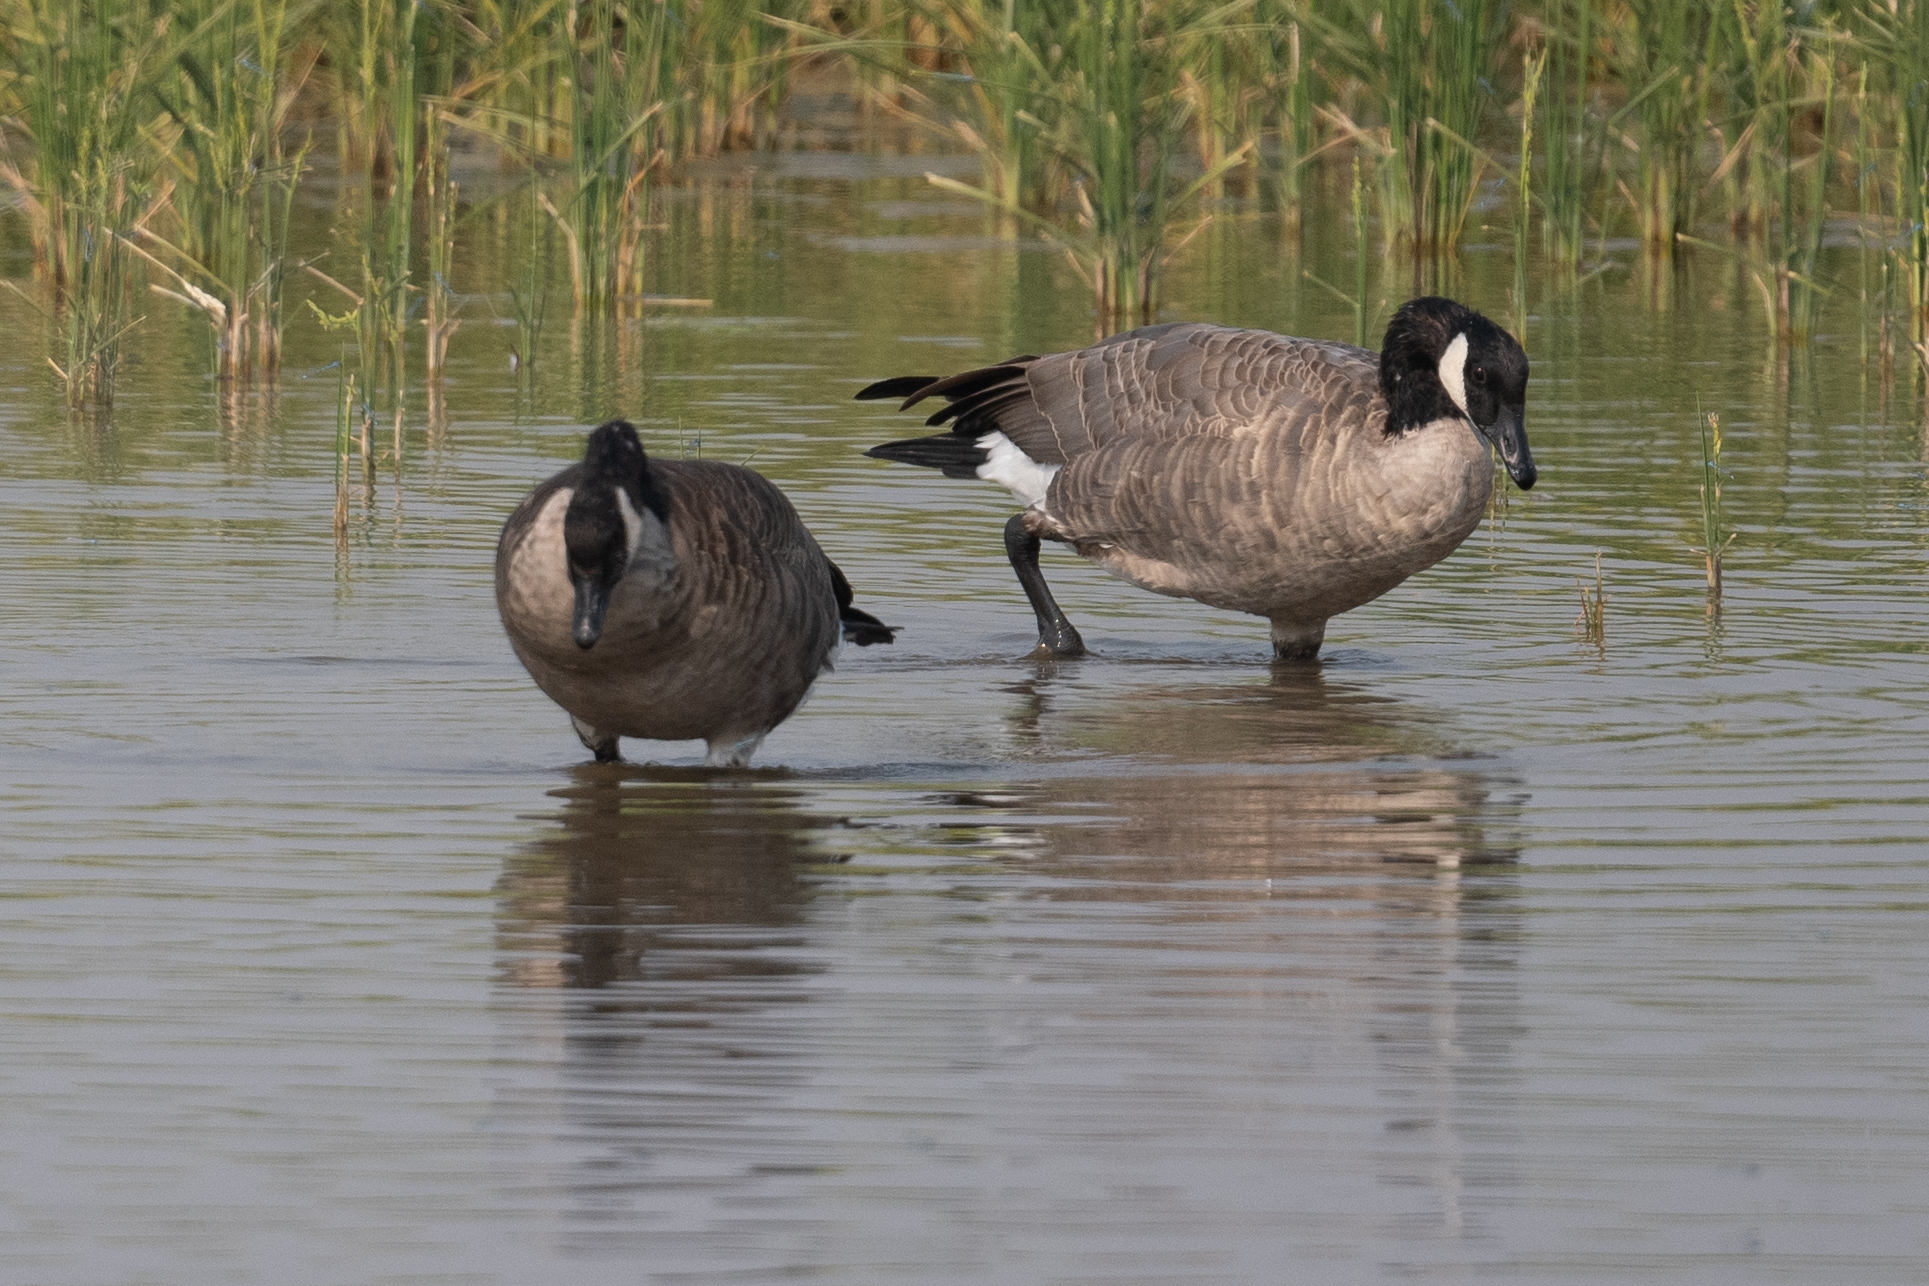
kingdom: Animalia
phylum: Chordata
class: Aves
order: Anseriformes
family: Anatidae
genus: Branta
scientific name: Branta canadensis
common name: Canada goose
